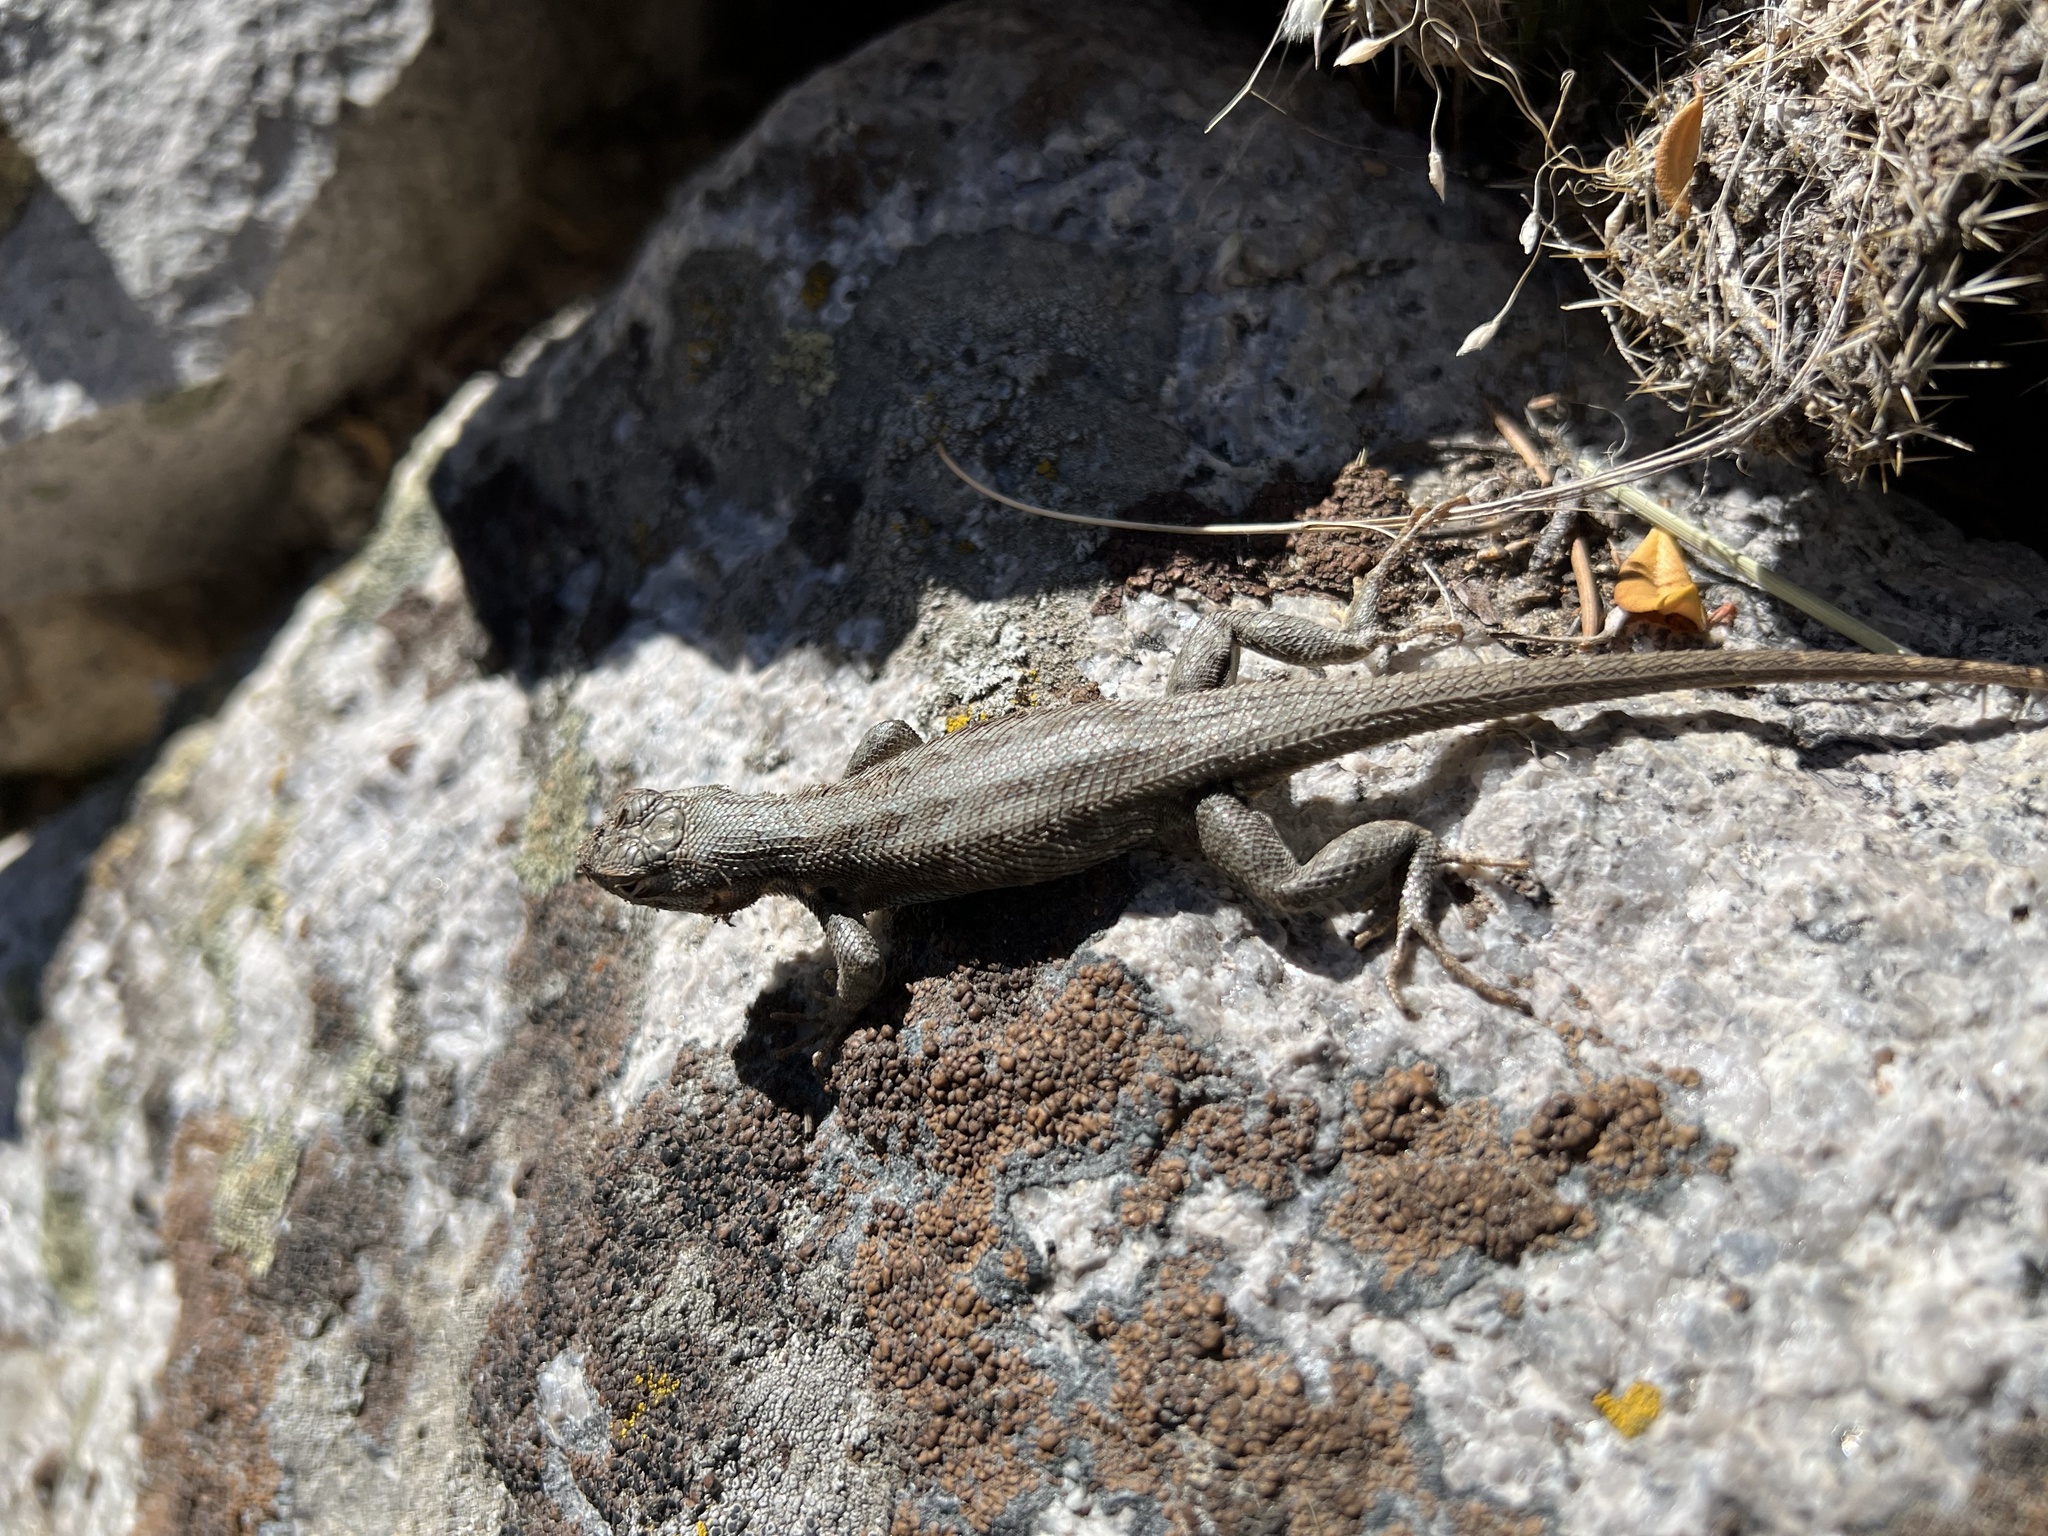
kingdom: Animalia
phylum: Chordata
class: Squamata
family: Phrynosomatidae
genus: Sceloporus
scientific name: Sceloporus graciosus
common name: Sagebrush lizard
